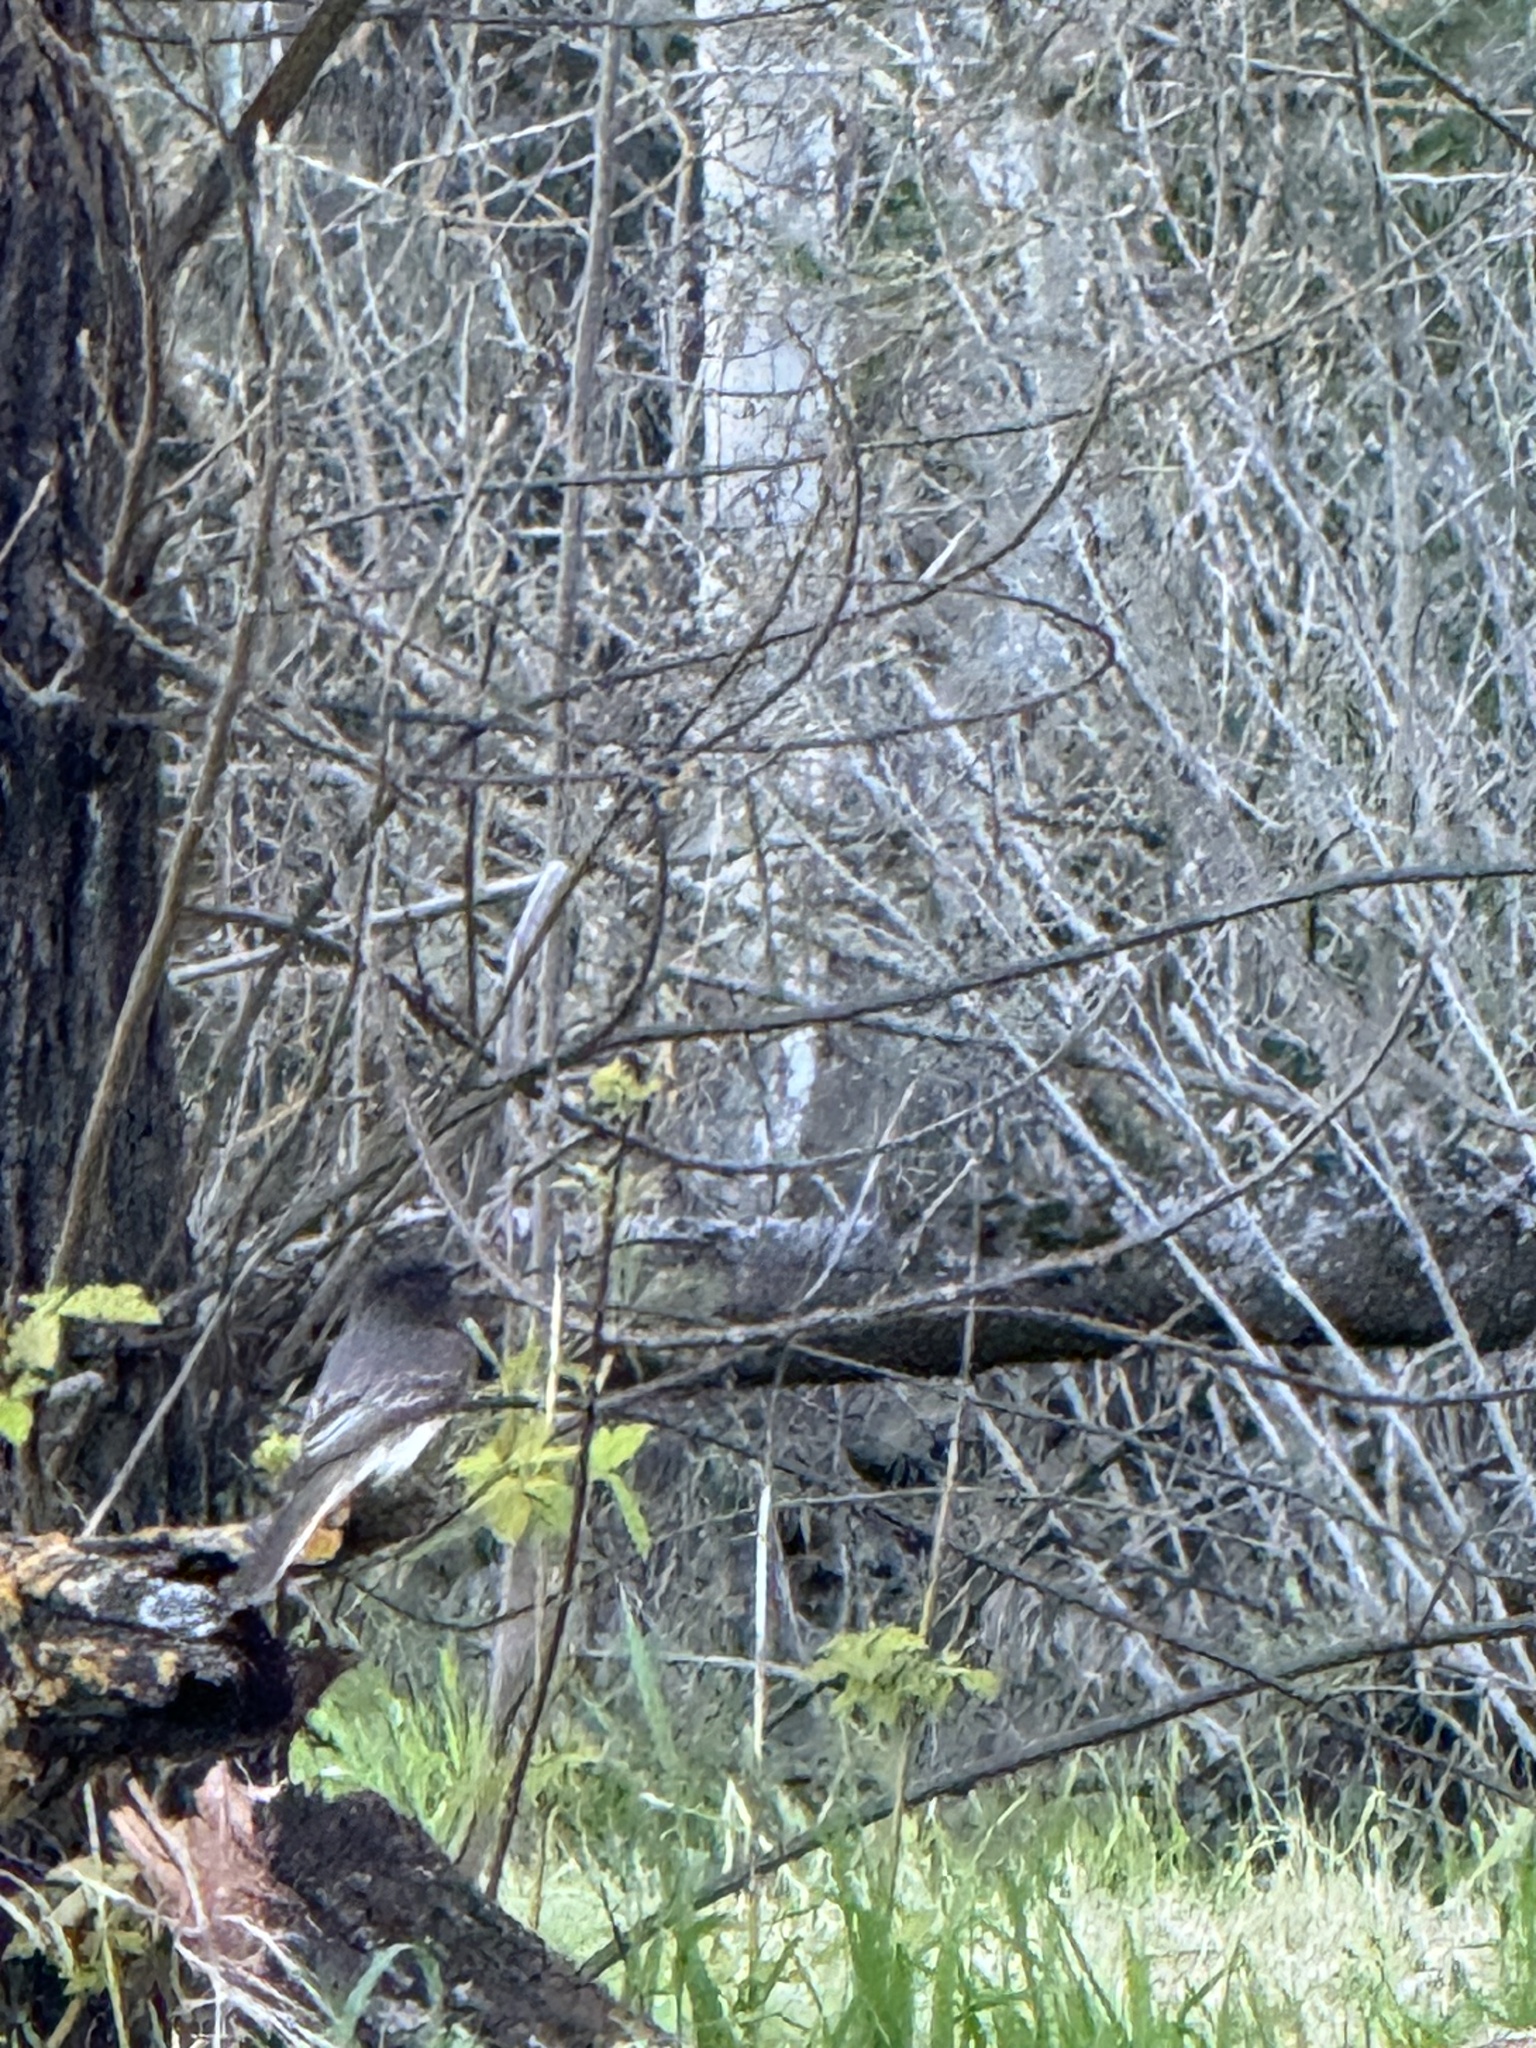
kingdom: Animalia
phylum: Chordata
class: Aves
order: Passeriformes
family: Tyrannidae
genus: Sayornis
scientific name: Sayornis nigricans
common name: Black phoebe
